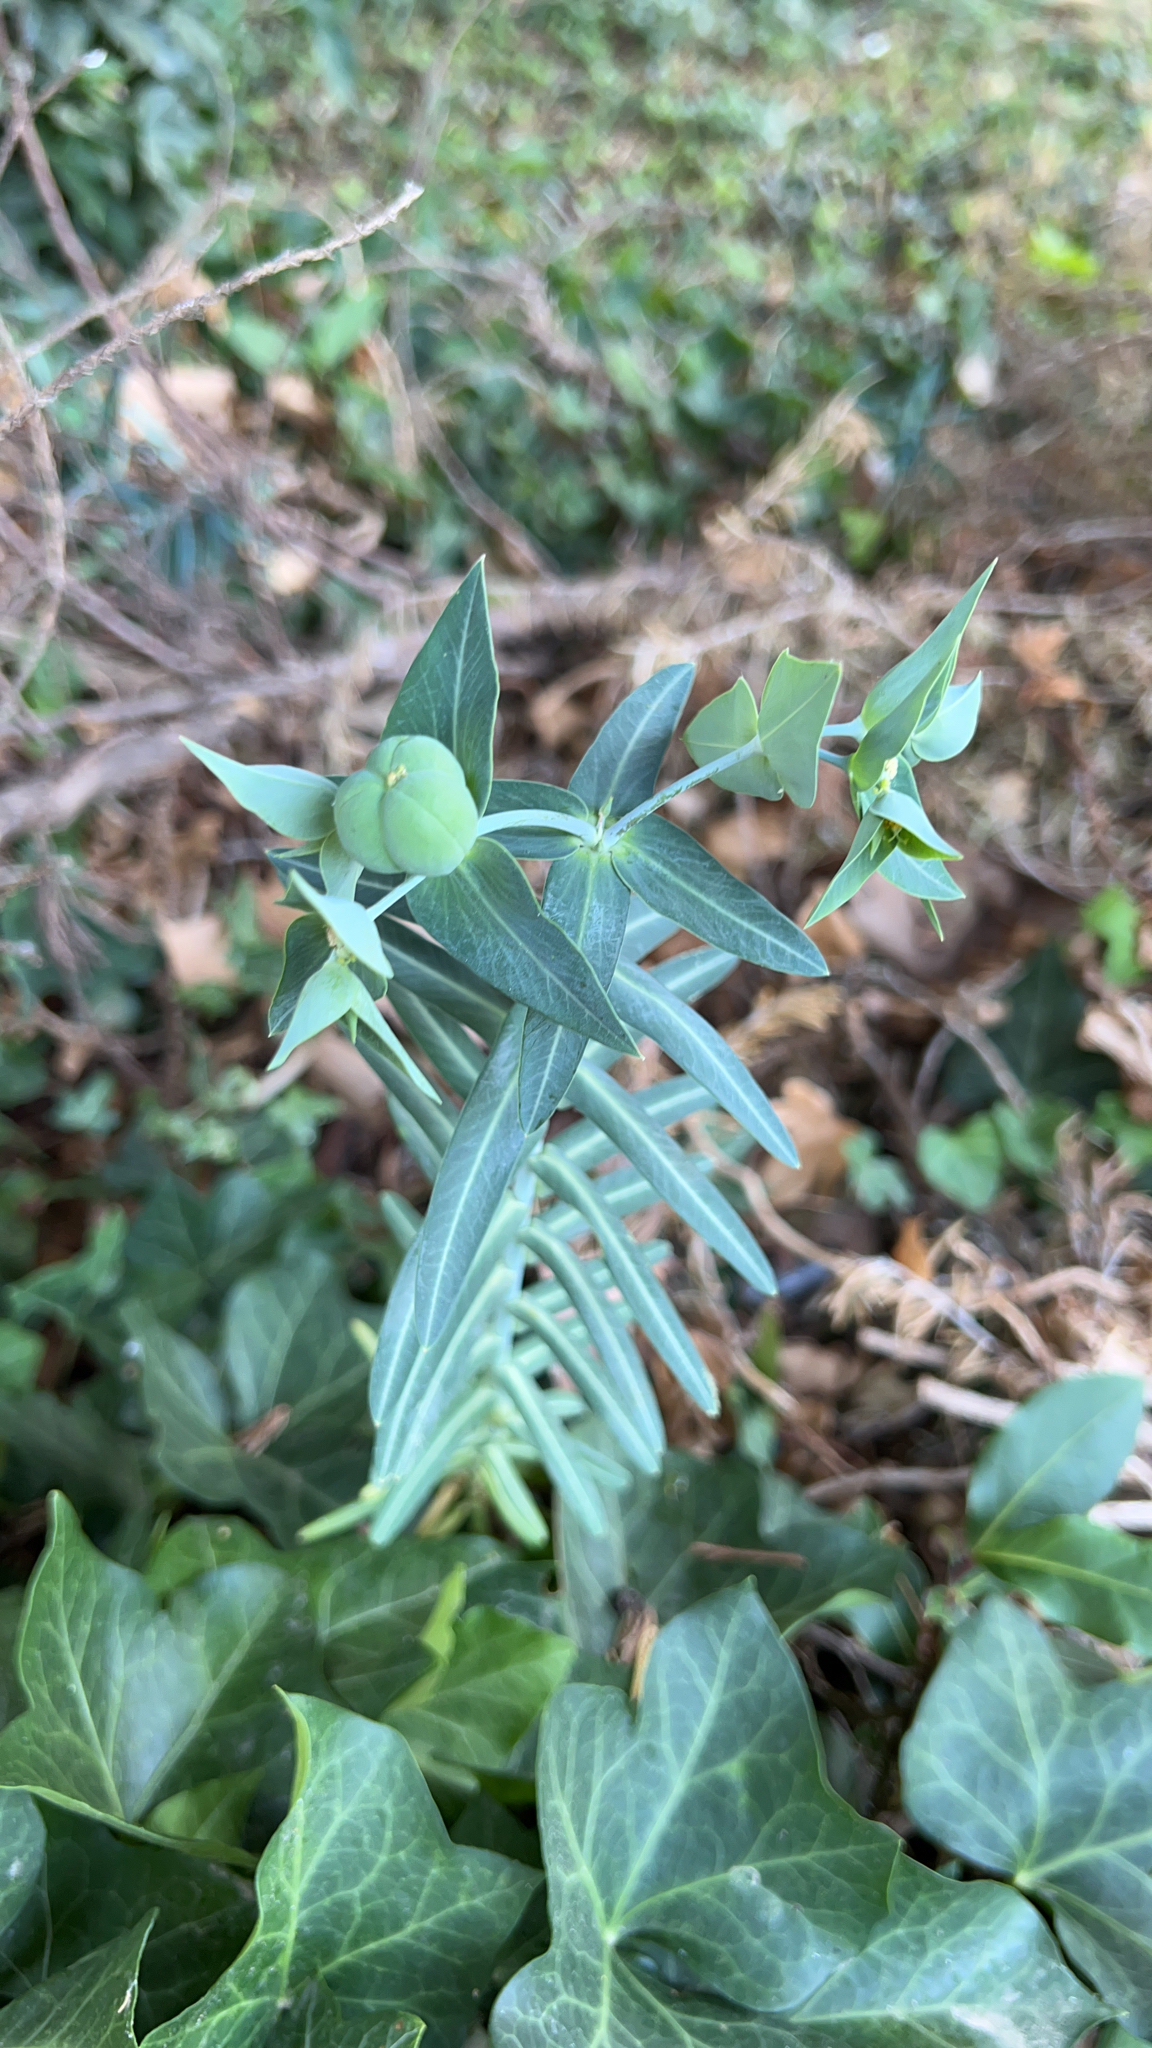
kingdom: Plantae
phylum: Tracheophyta
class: Magnoliopsida
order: Malpighiales
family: Euphorbiaceae
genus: Euphorbia
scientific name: Euphorbia lathyris
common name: Caper spurge
